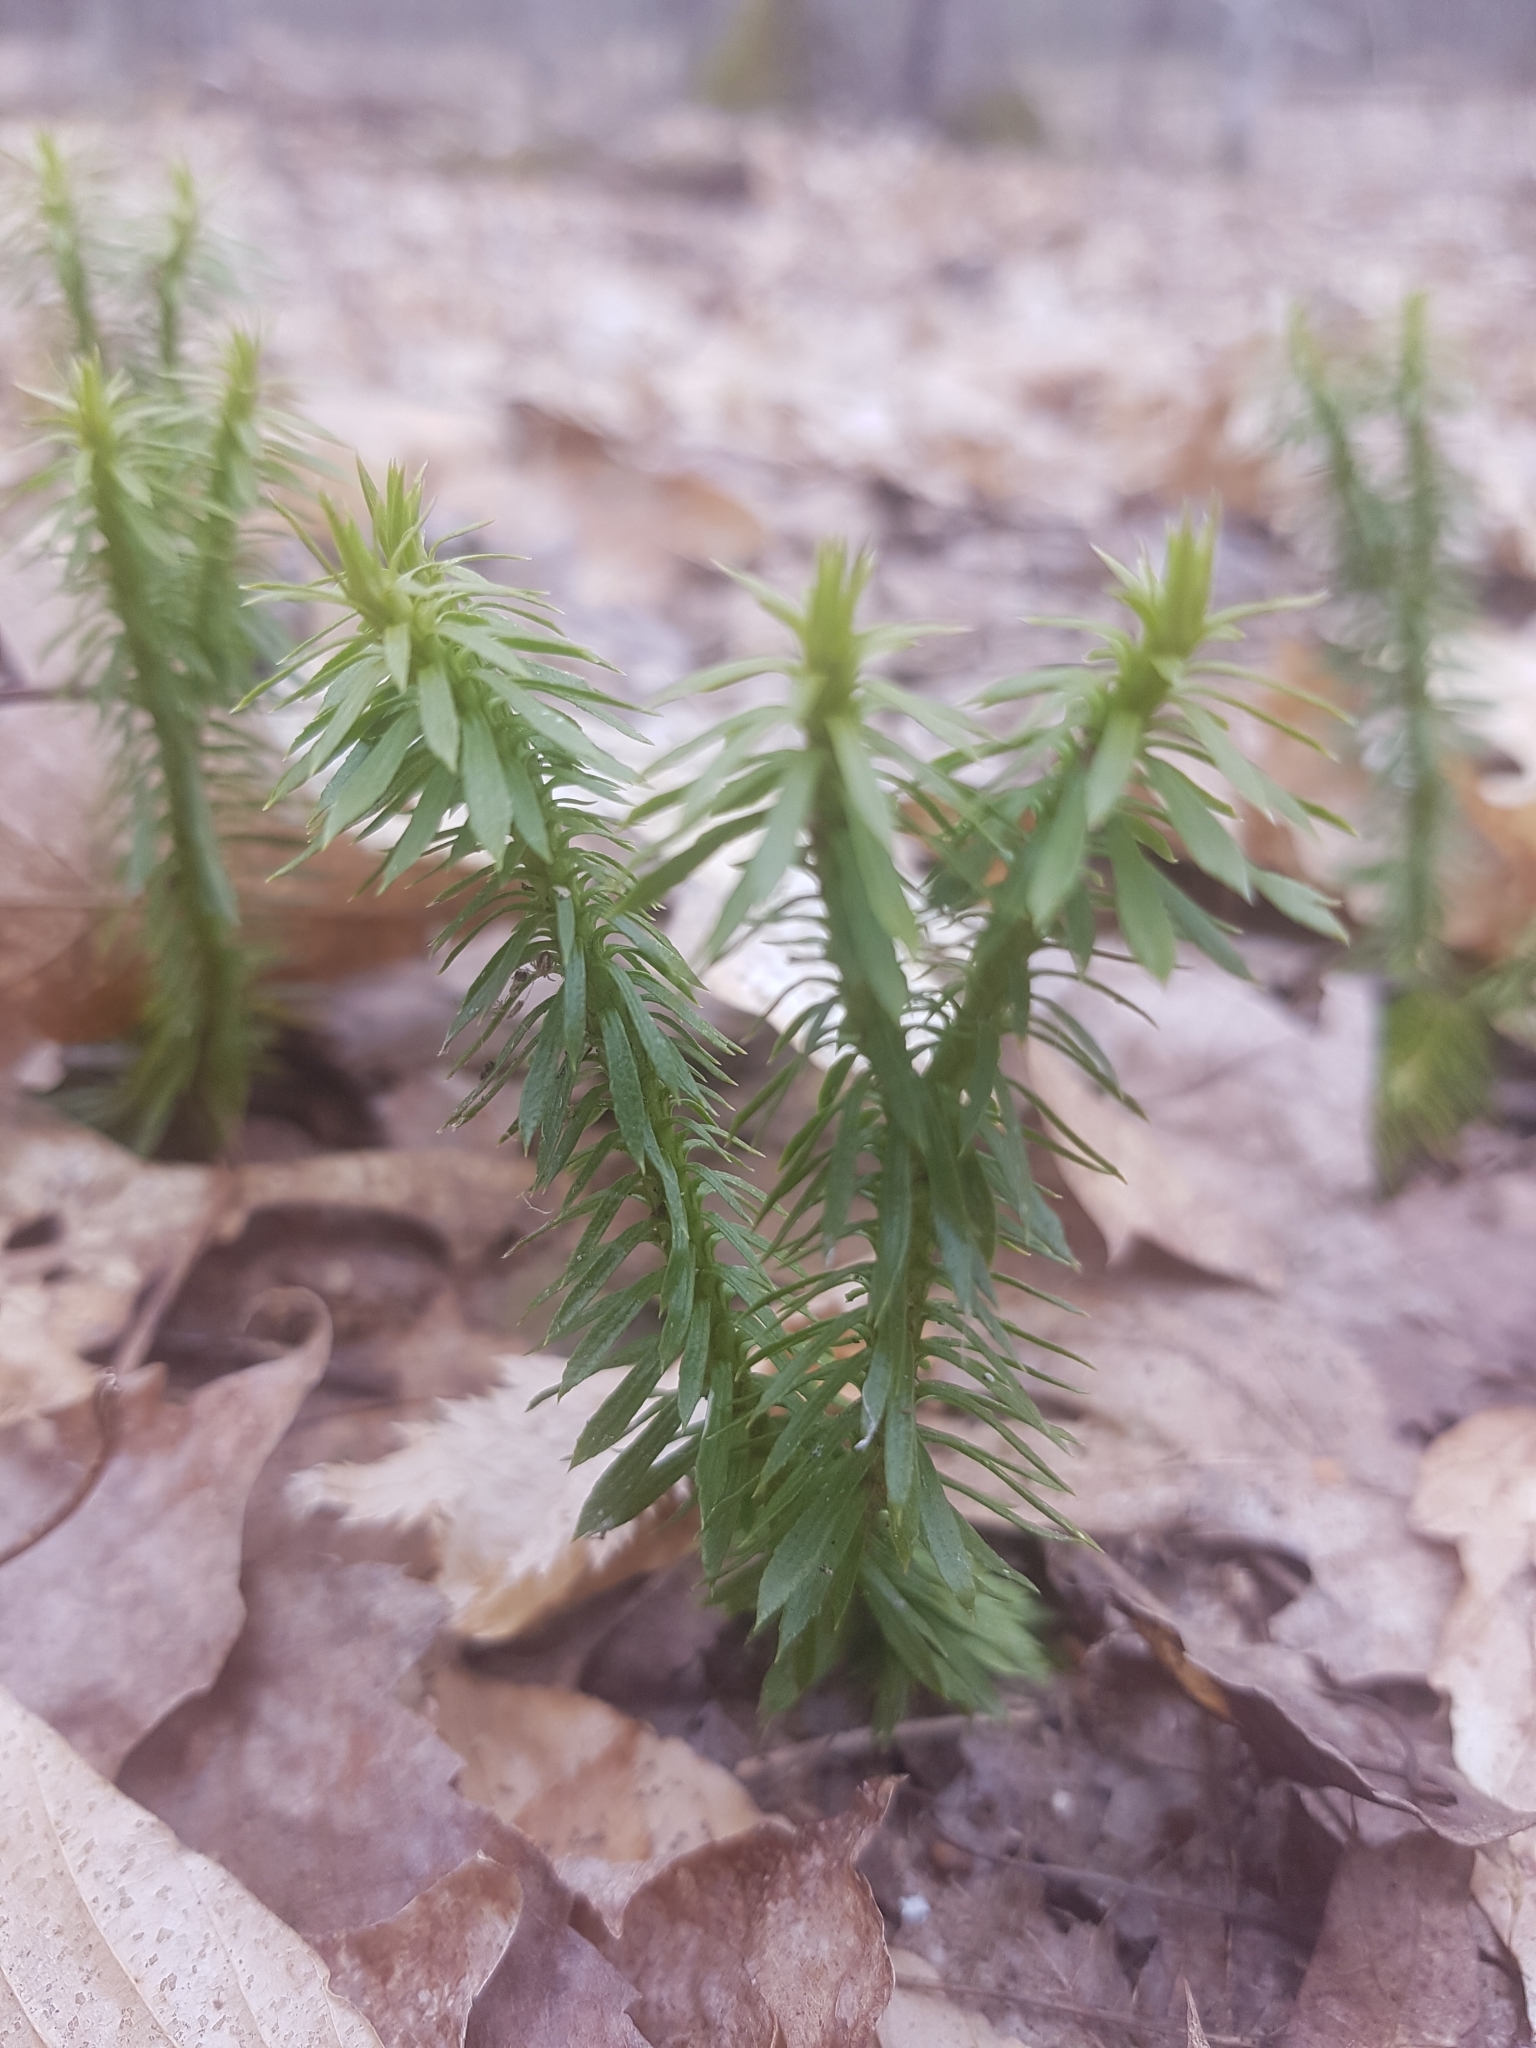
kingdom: Plantae
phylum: Tracheophyta
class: Lycopodiopsida
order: Lycopodiales
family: Lycopodiaceae
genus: Huperzia
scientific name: Huperzia lucidula
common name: Shining clubmoss
